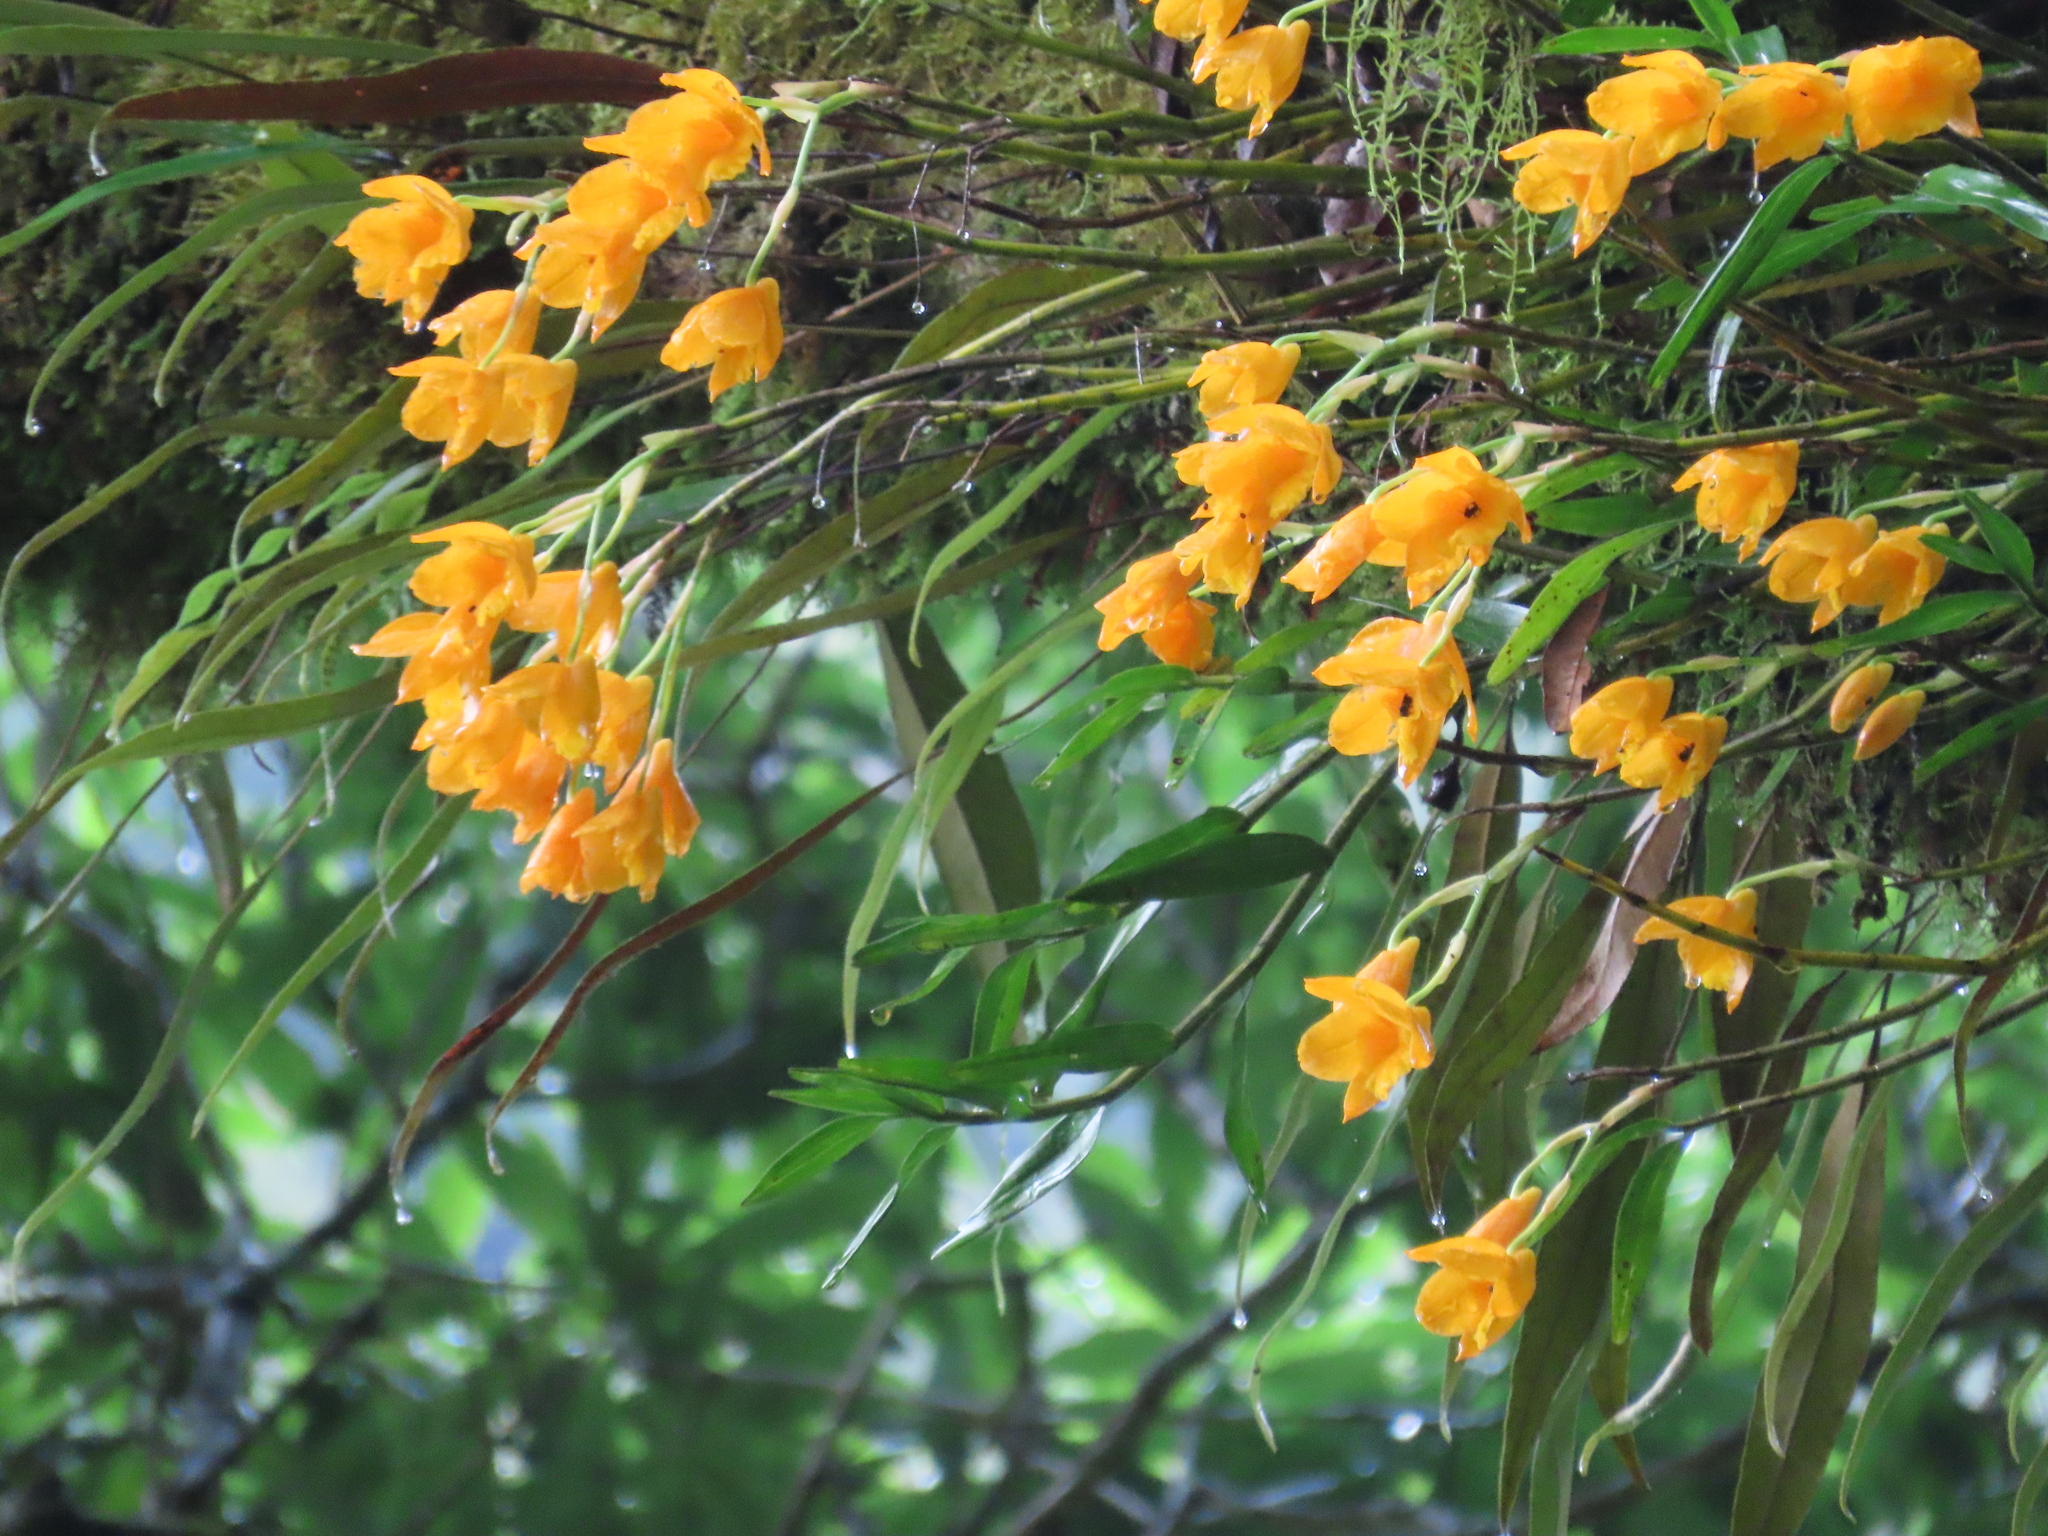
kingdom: Plantae
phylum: Tracheophyta
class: Liliopsida
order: Asparagales
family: Orchidaceae
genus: Dendrobium
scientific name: Dendrobium chryseum
